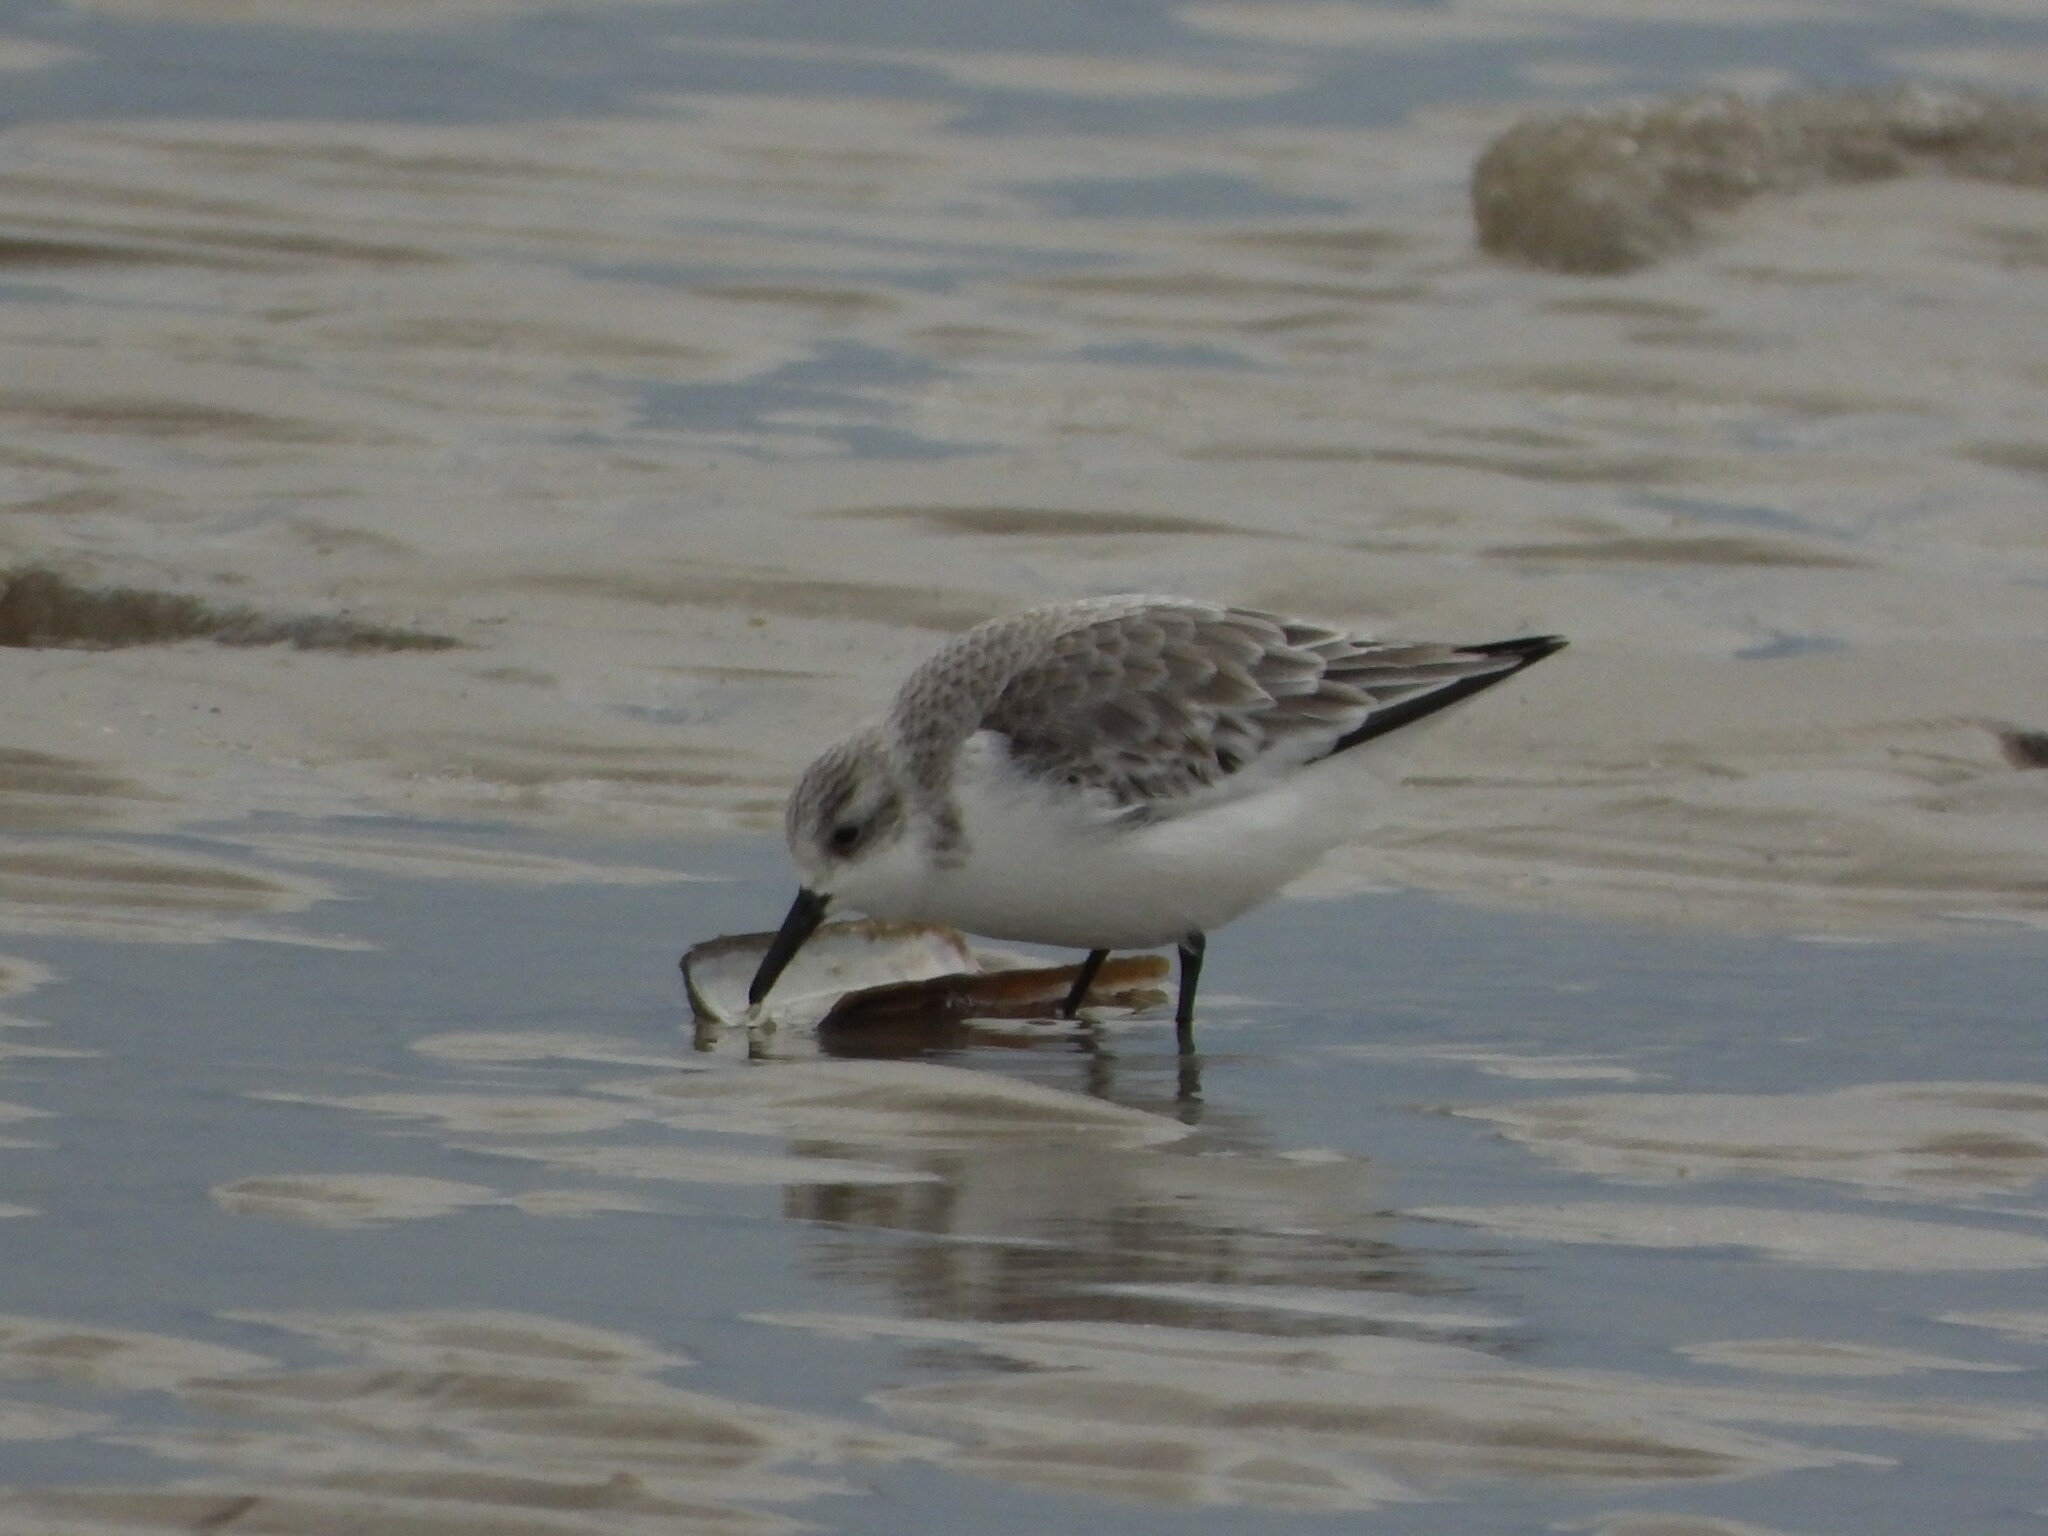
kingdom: Animalia
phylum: Chordata
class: Aves
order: Charadriiformes
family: Scolopacidae
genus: Calidris
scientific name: Calidris alba
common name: Sanderling
